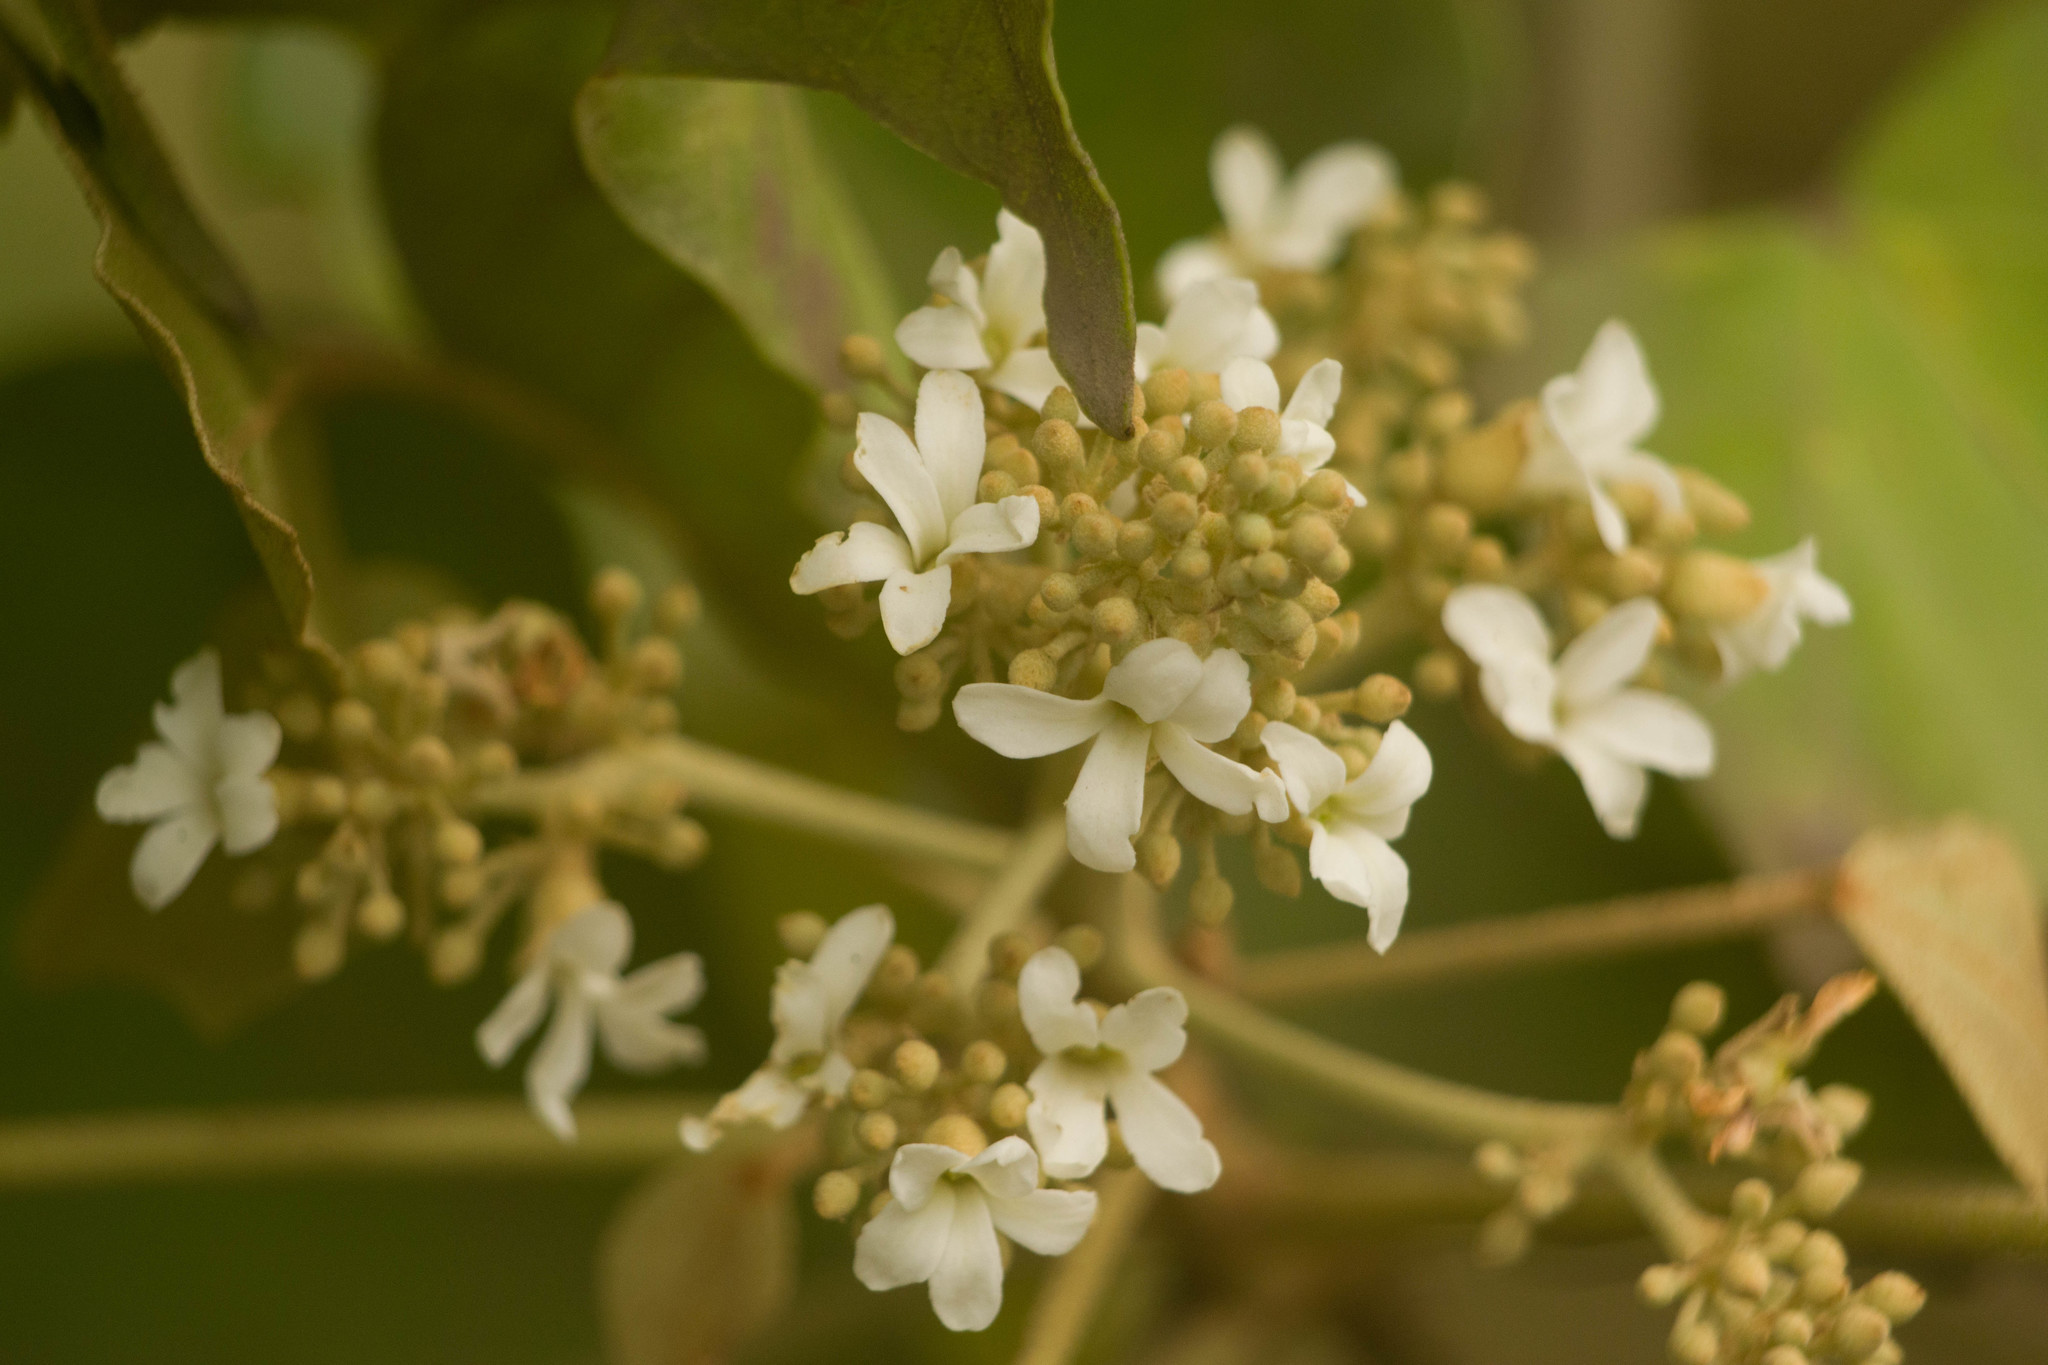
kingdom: Plantae
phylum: Tracheophyta
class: Magnoliopsida
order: Malpighiales
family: Euphorbiaceae
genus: Aleurites
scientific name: Aleurites moluccanus
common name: Candlenut tree
